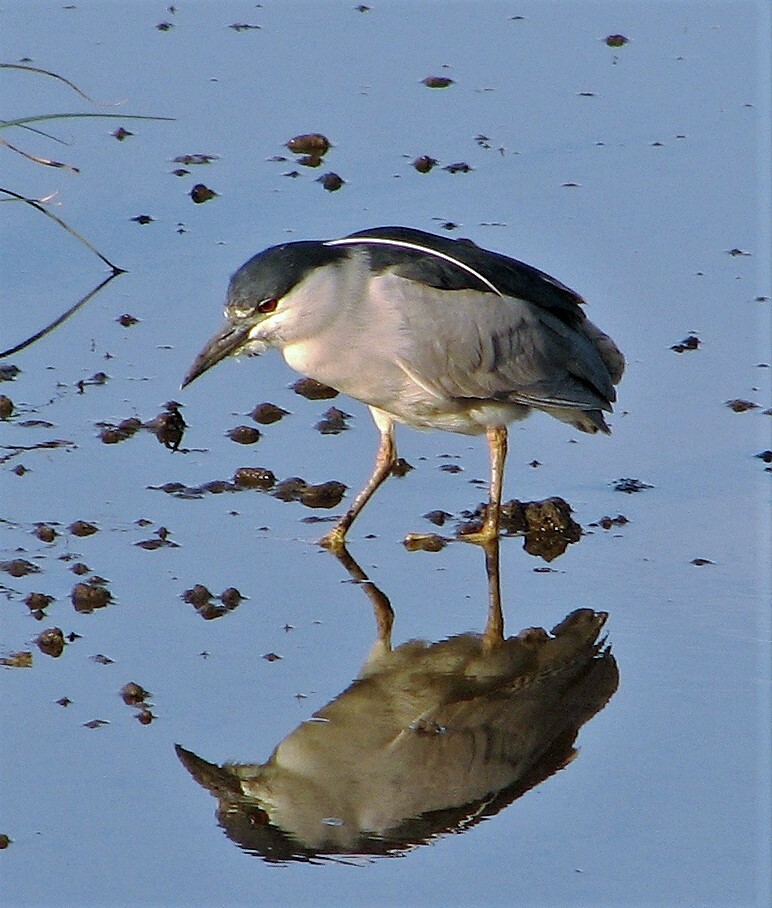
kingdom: Animalia
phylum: Chordata
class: Aves
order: Pelecaniformes
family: Ardeidae
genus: Nycticorax
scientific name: Nycticorax nycticorax
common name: Black-crowned night heron
